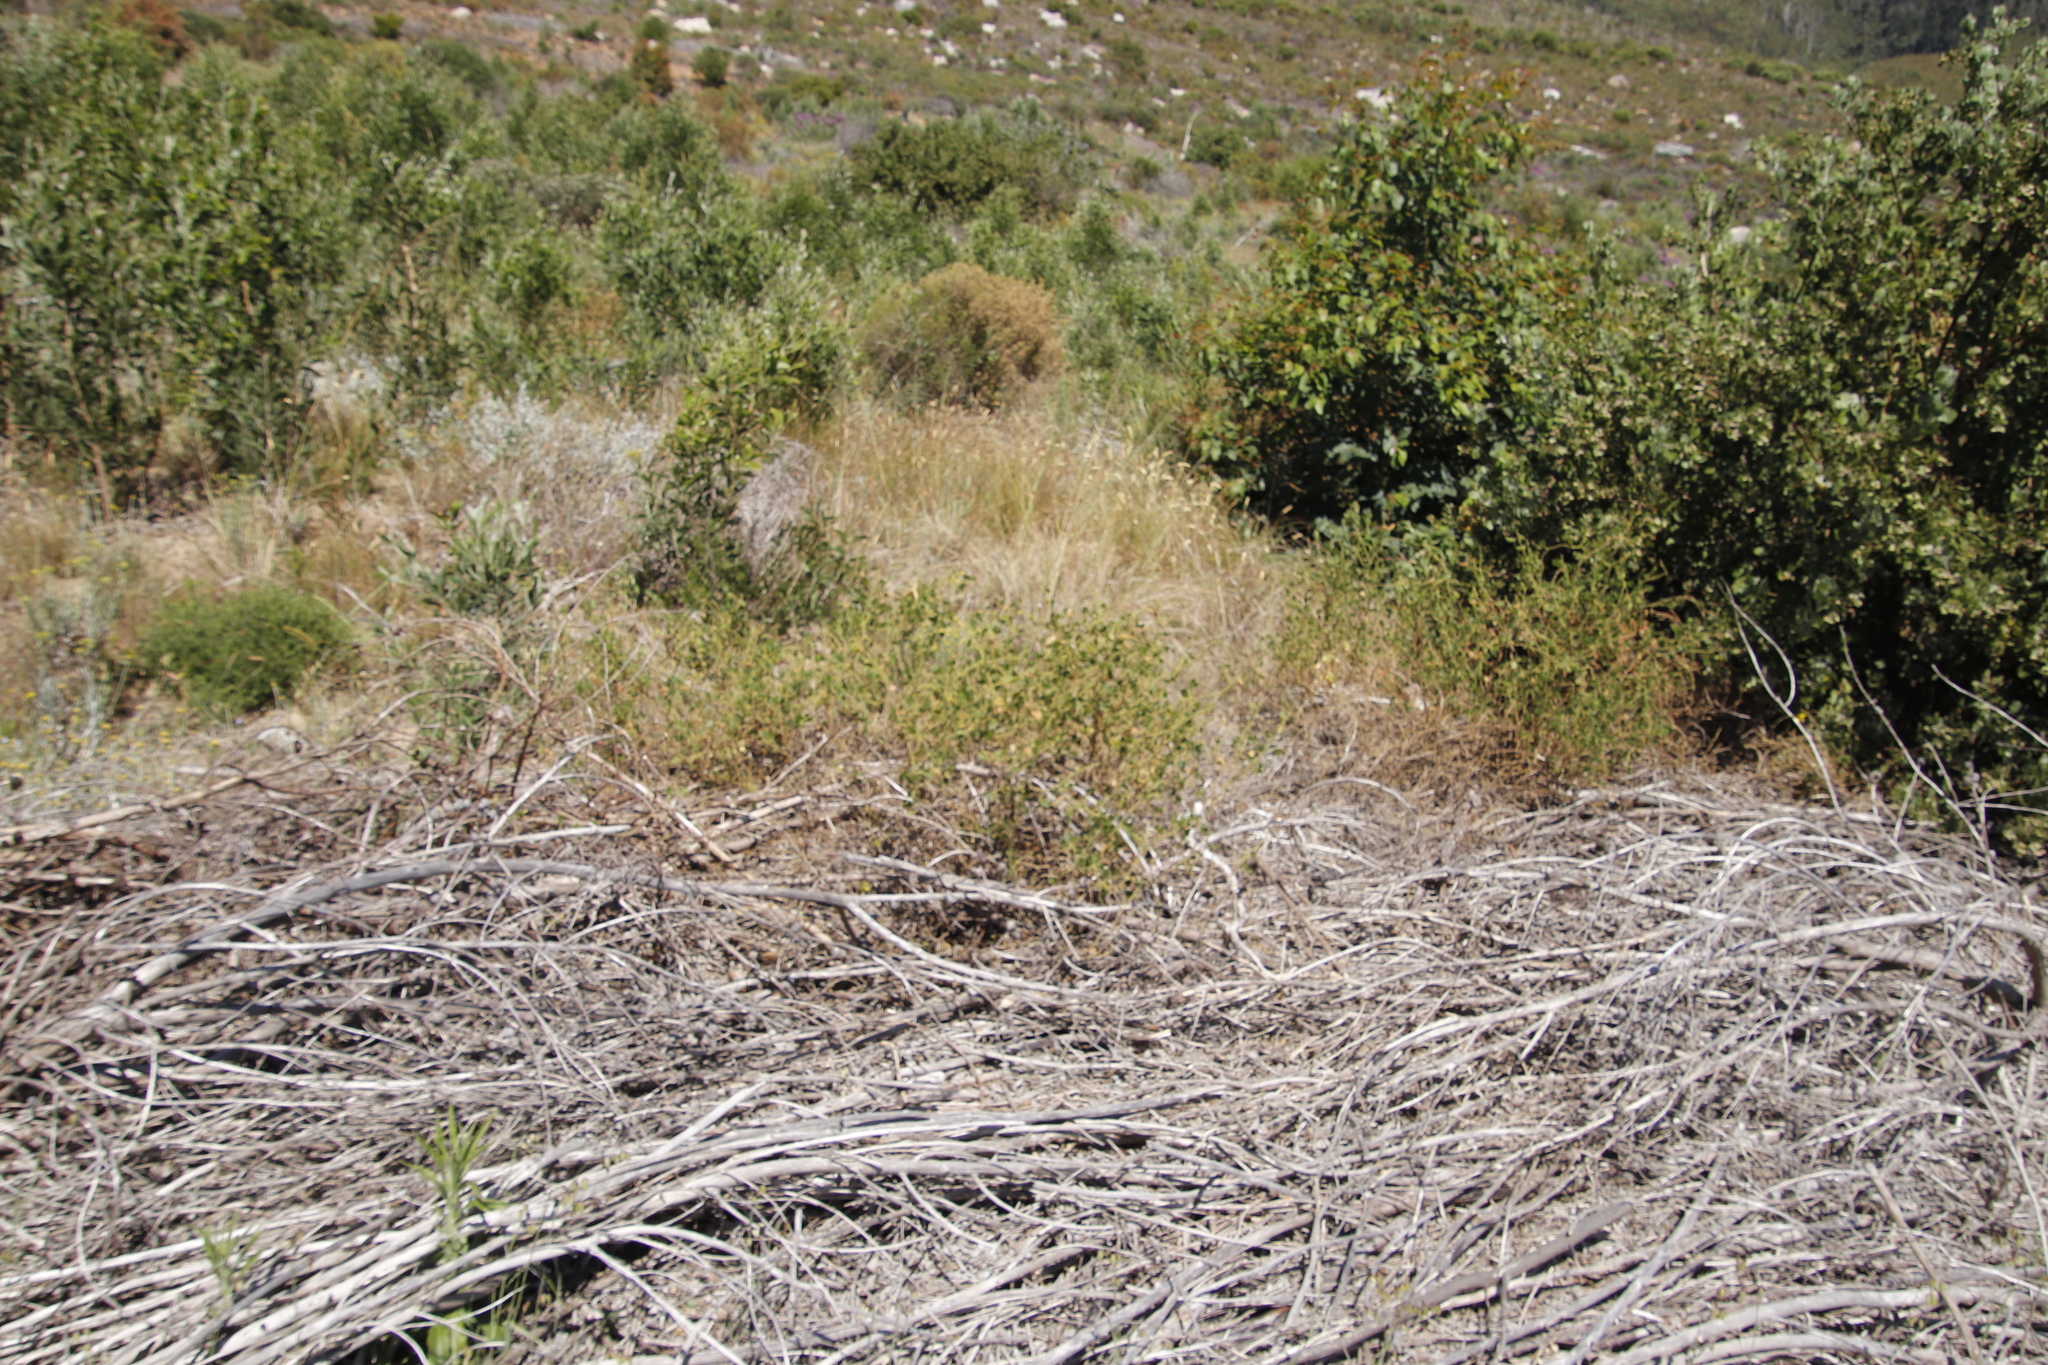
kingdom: Plantae
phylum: Tracheophyta
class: Magnoliopsida
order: Fabales
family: Fabaceae
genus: Bolusafra
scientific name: Bolusafra bituminosa
